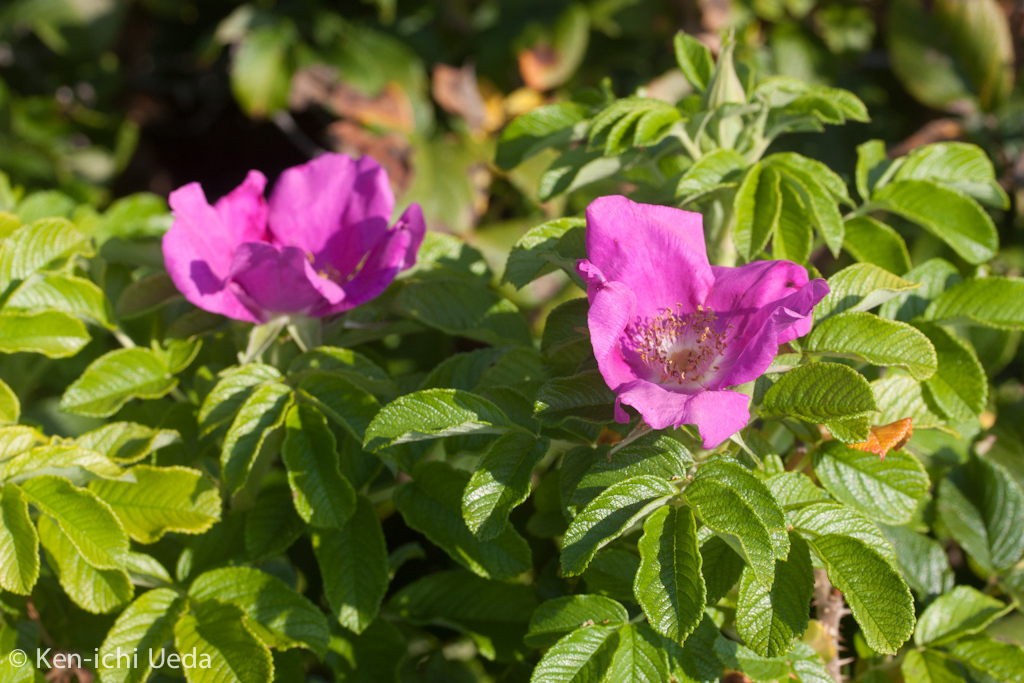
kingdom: Plantae
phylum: Tracheophyta
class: Magnoliopsida
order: Rosales
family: Rosaceae
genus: Rosa
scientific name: Rosa rugosa
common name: Japanese rose
